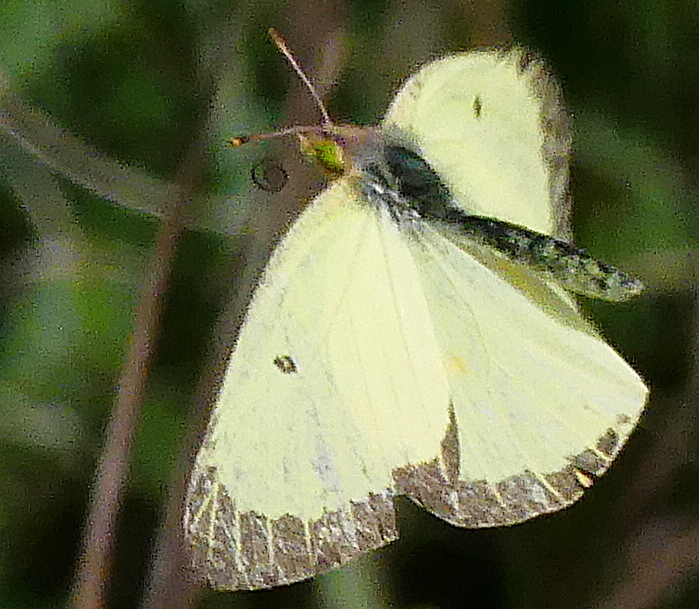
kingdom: Animalia
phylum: Arthropoda
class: Insecta
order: Lepidoptera
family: Pieridae
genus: Colias
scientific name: Colias philodice
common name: Clouded sulphur
